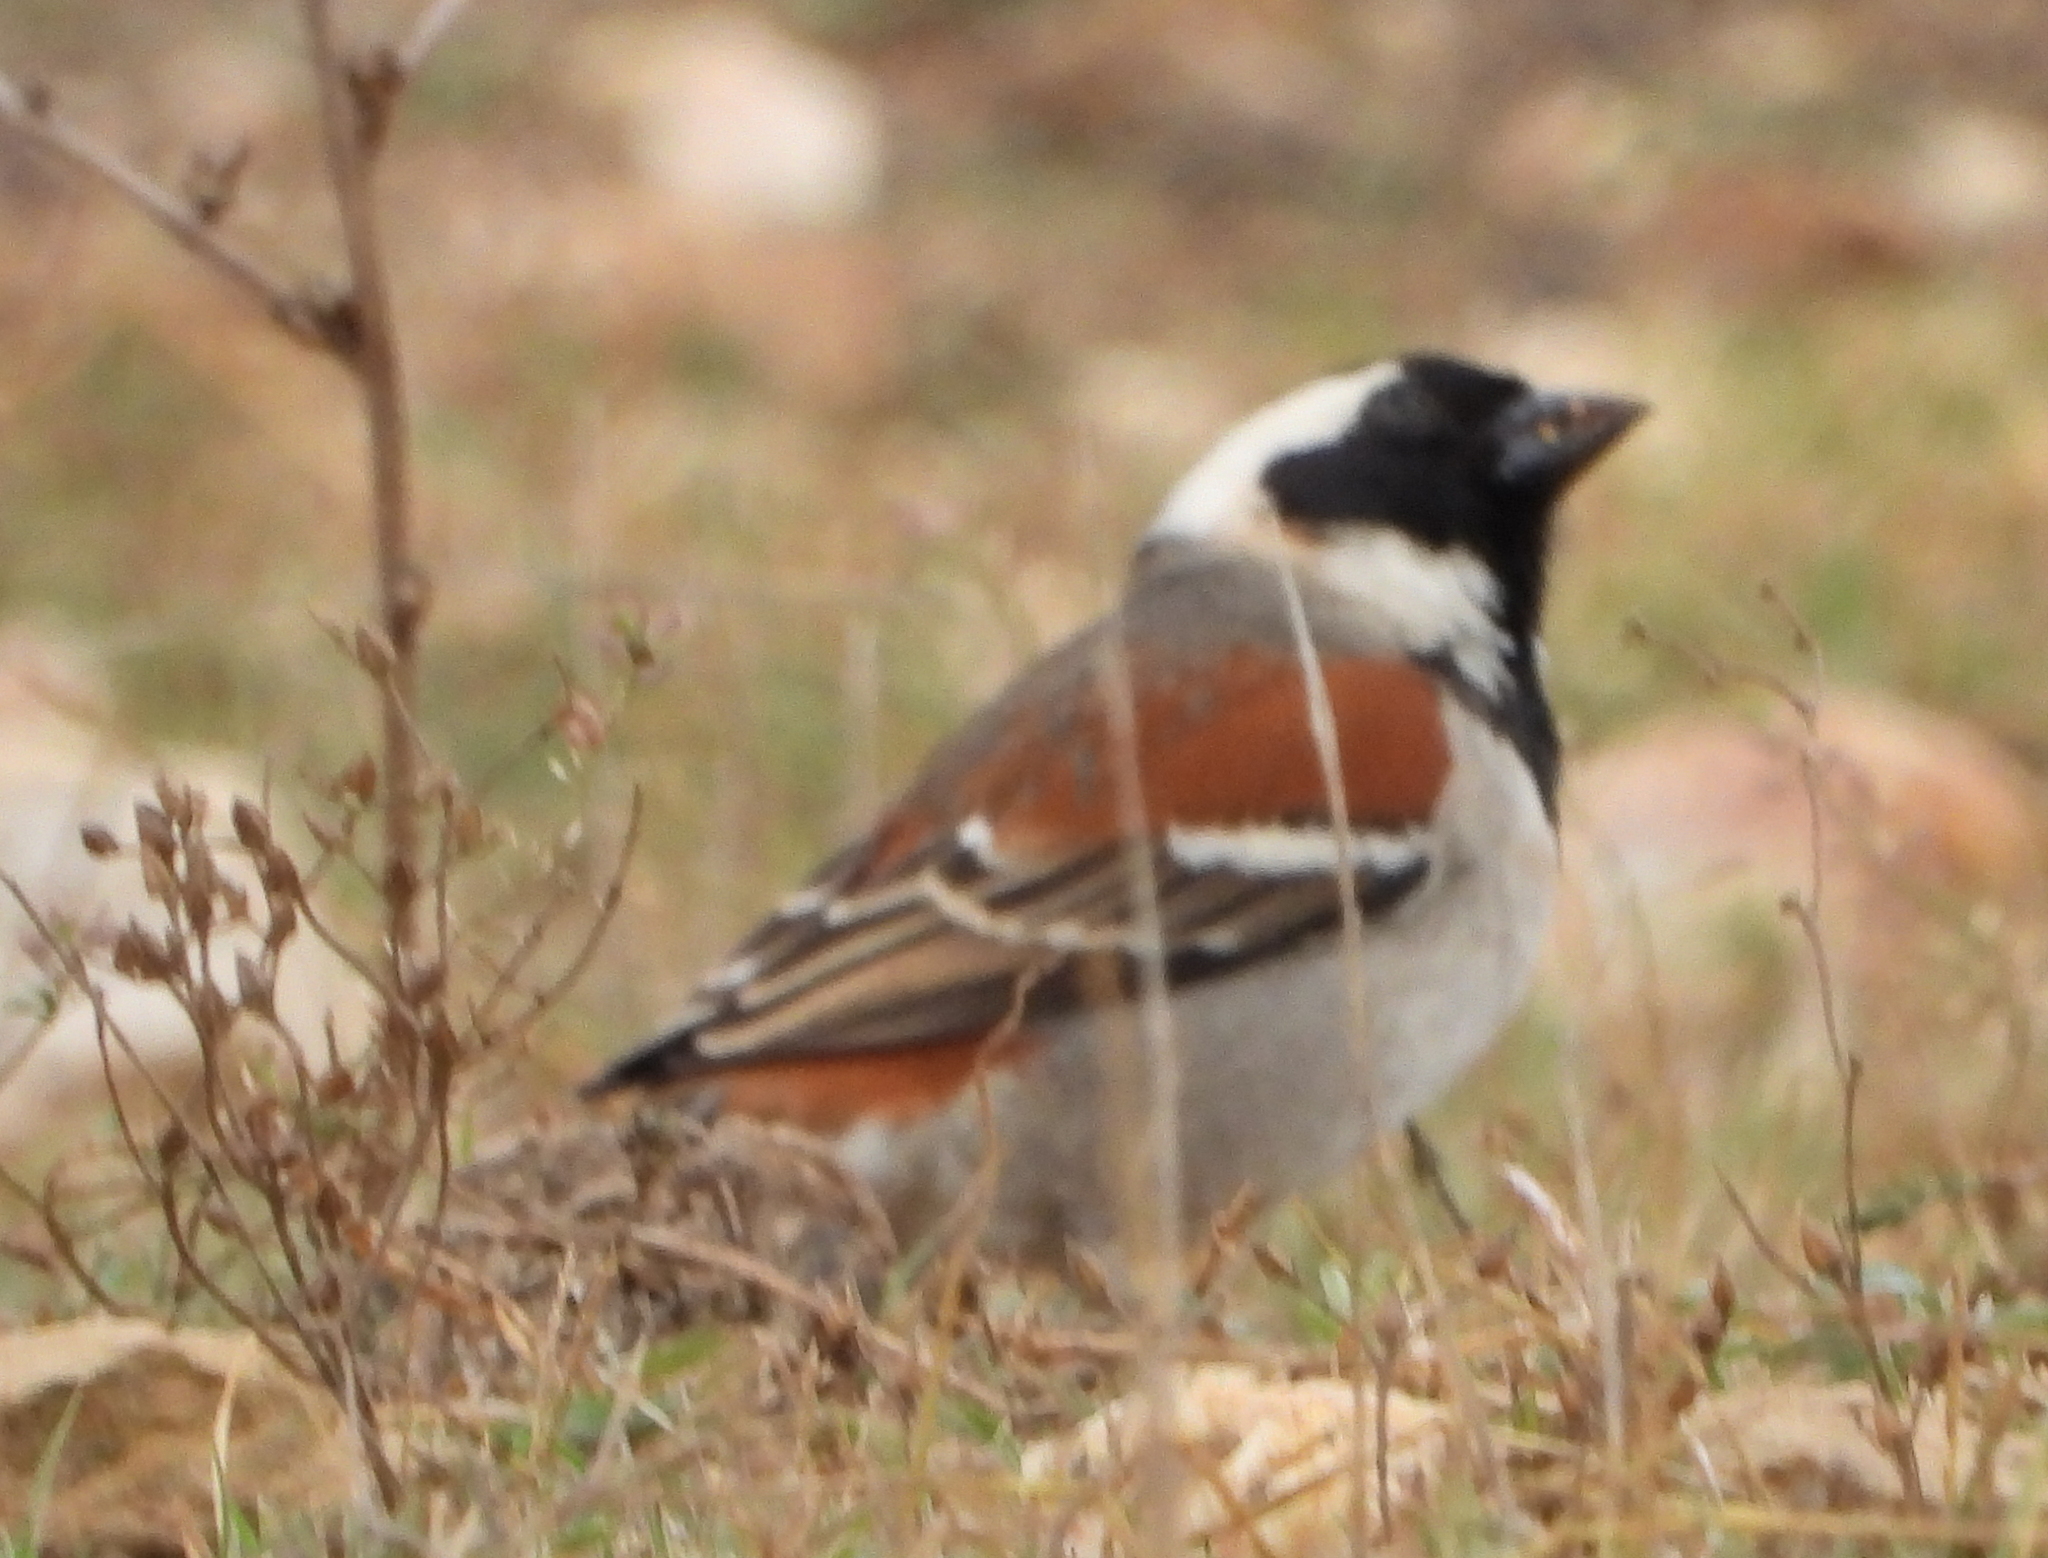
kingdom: Animalia
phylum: Chordata
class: Aves
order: Passeriformes
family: Passeridae
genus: Passer
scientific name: Passer melanurus
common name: Cape sparrow
